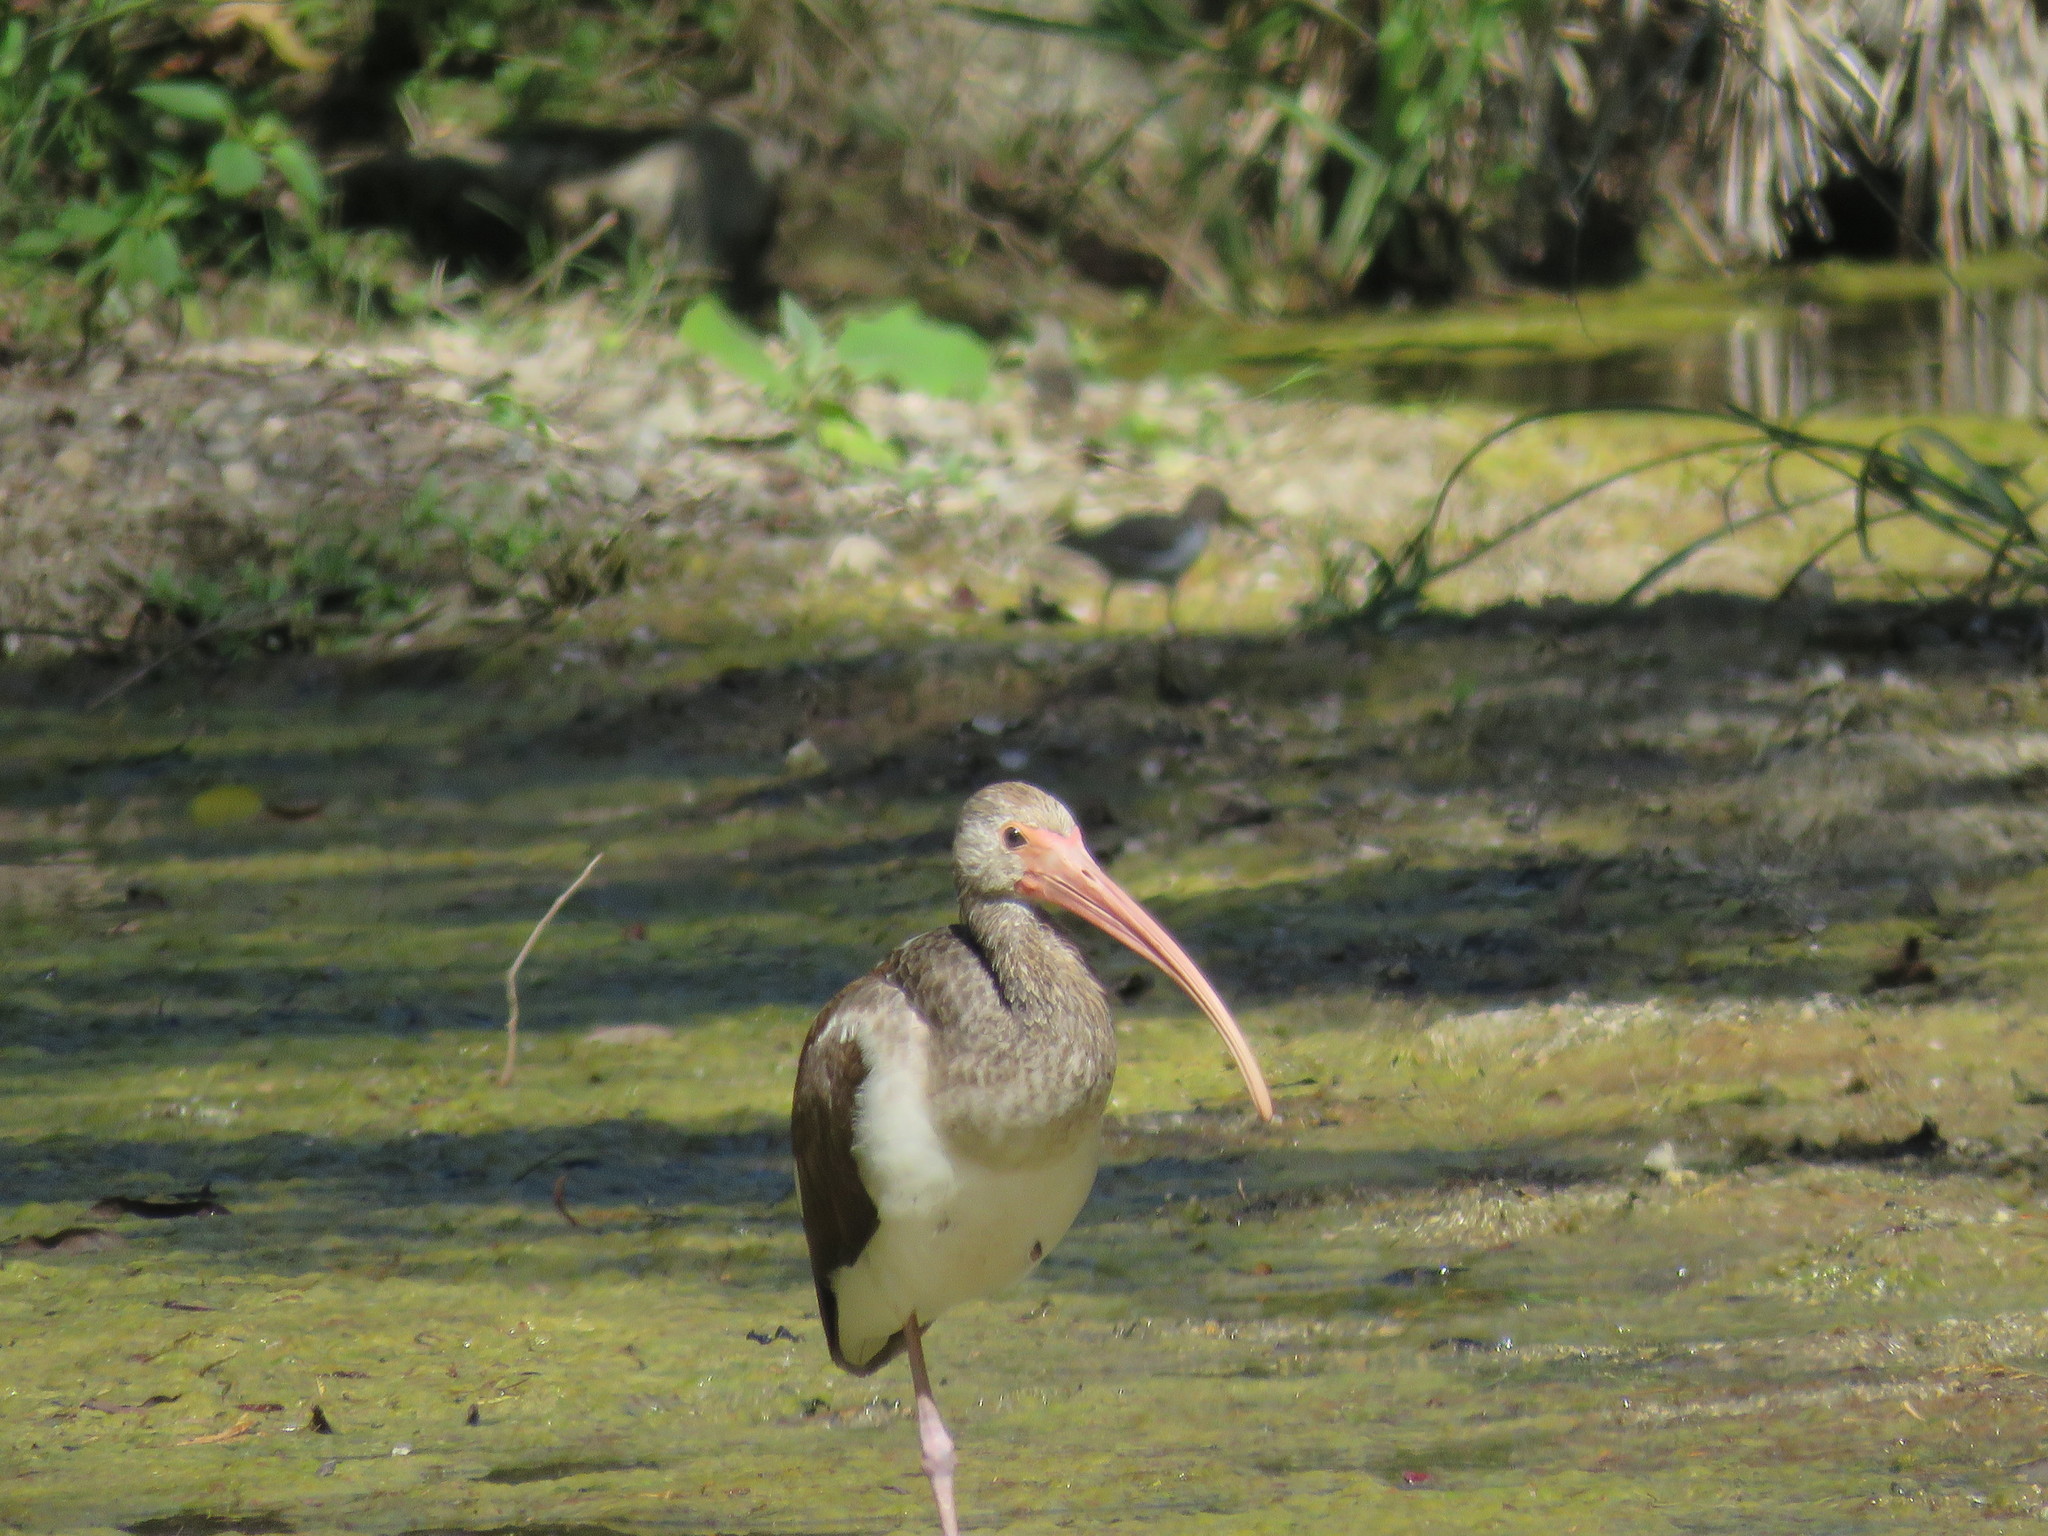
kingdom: Animalia
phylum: Chordata
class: Aves
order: Pelecaniformes
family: Threskiornithidae
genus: Eudocimus
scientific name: Eudocimus albus
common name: White ibis
